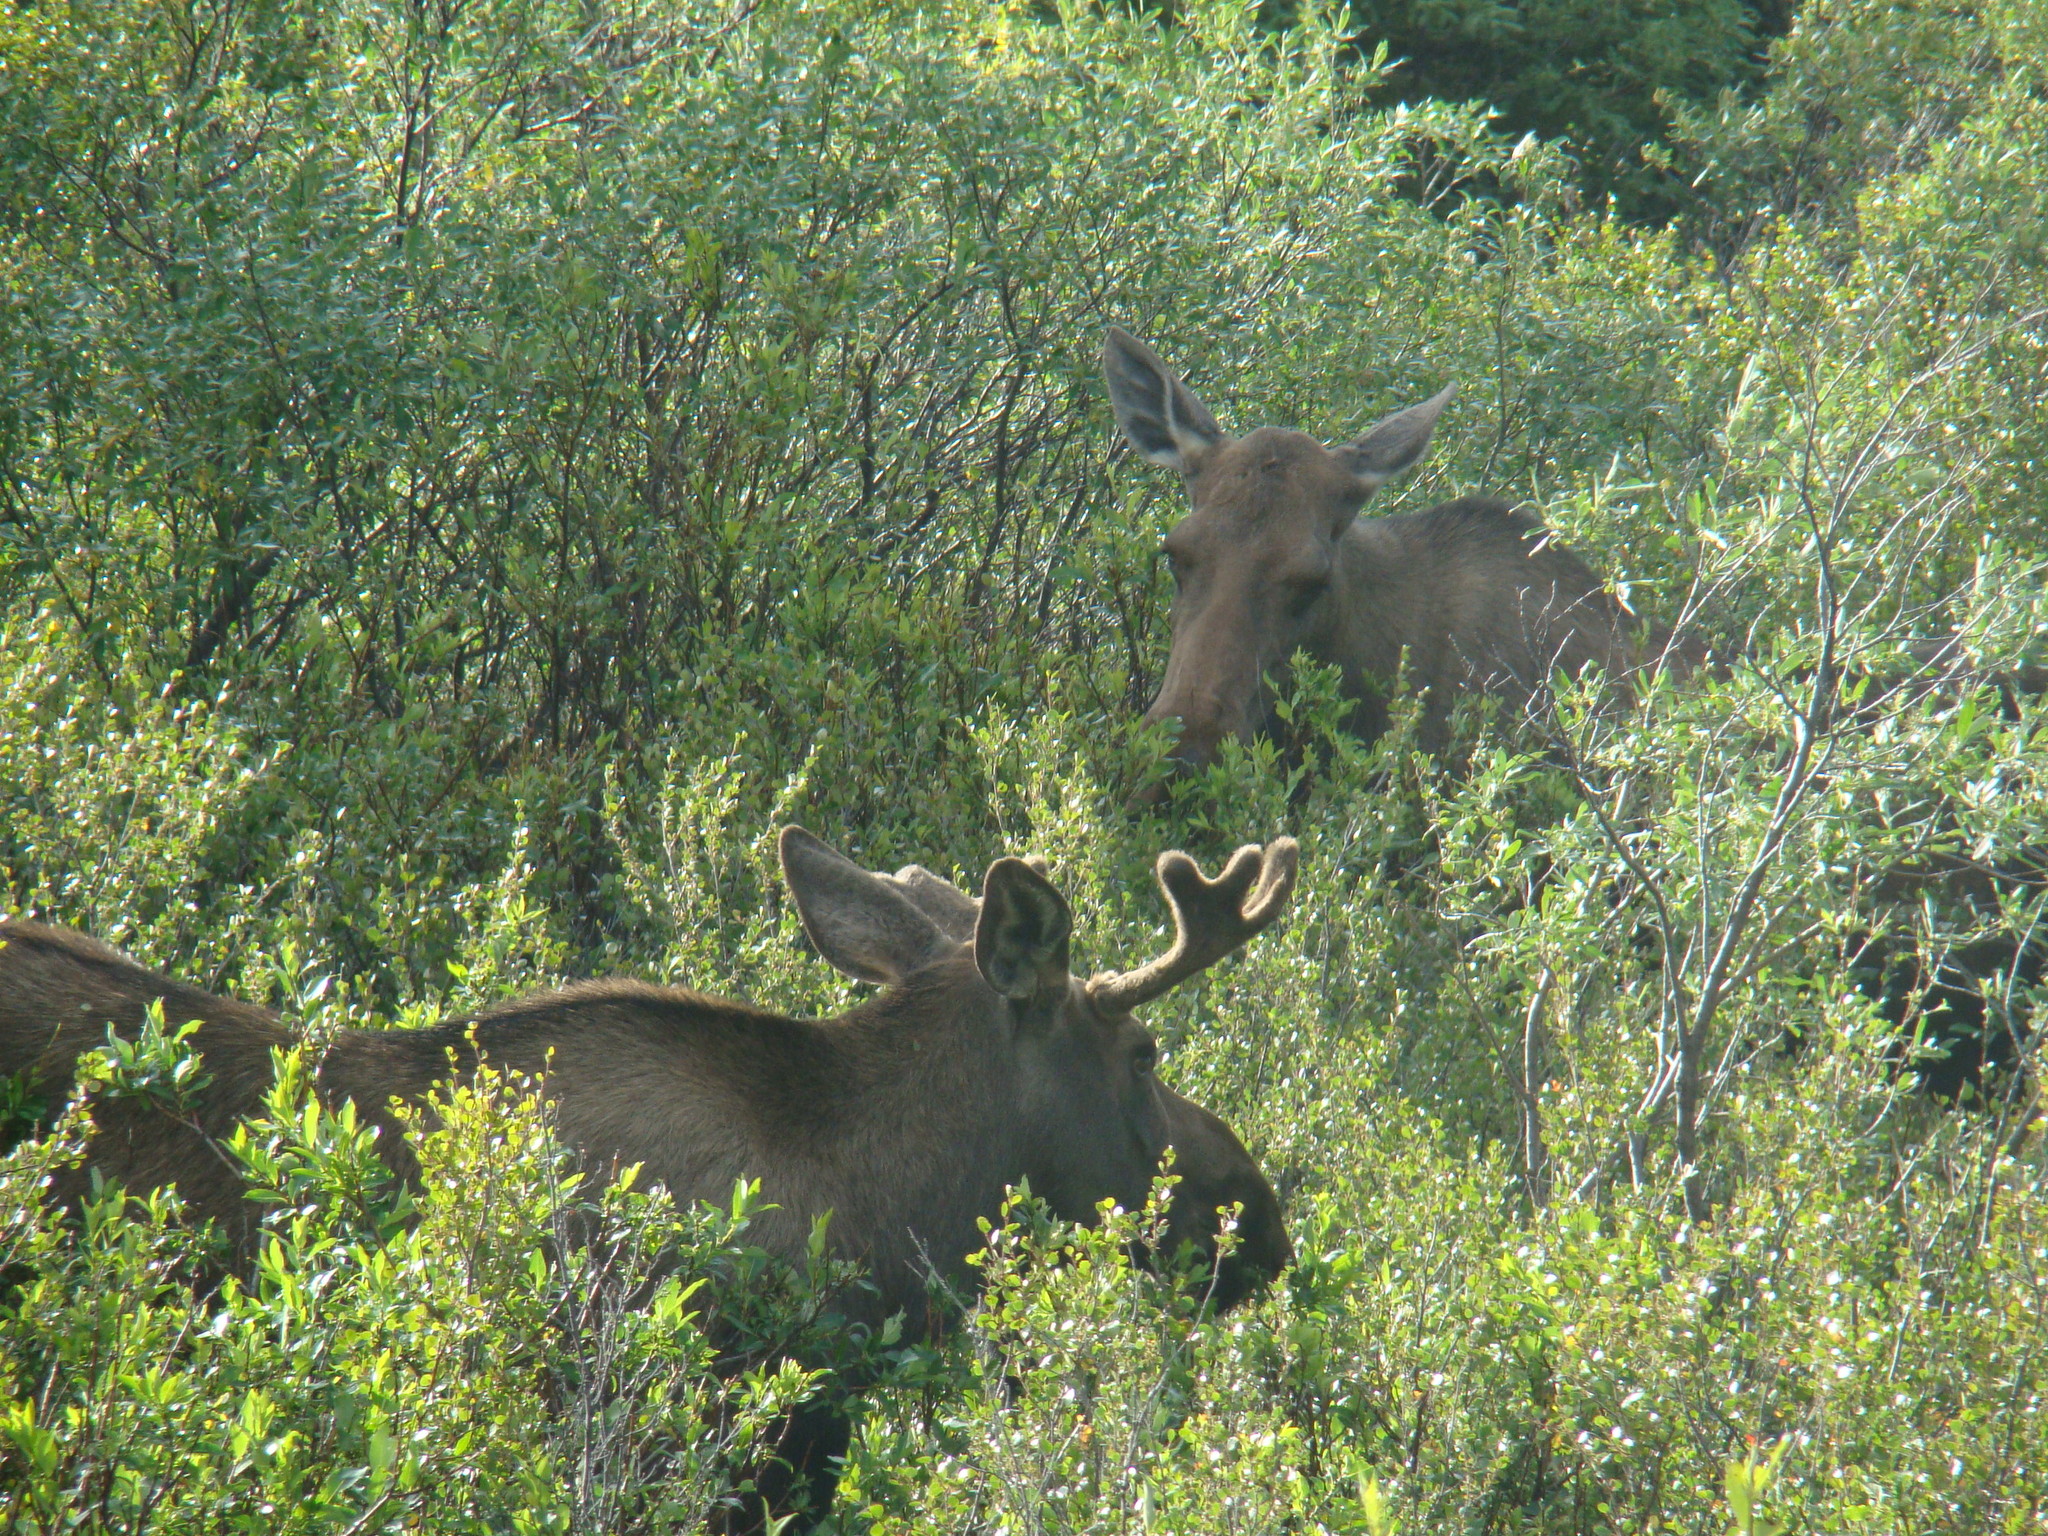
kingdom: Animalia
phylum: Chordata
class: Mammalia
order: Artiodactyla
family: Cervidae
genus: Alces
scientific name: Alces alces
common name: Moose
